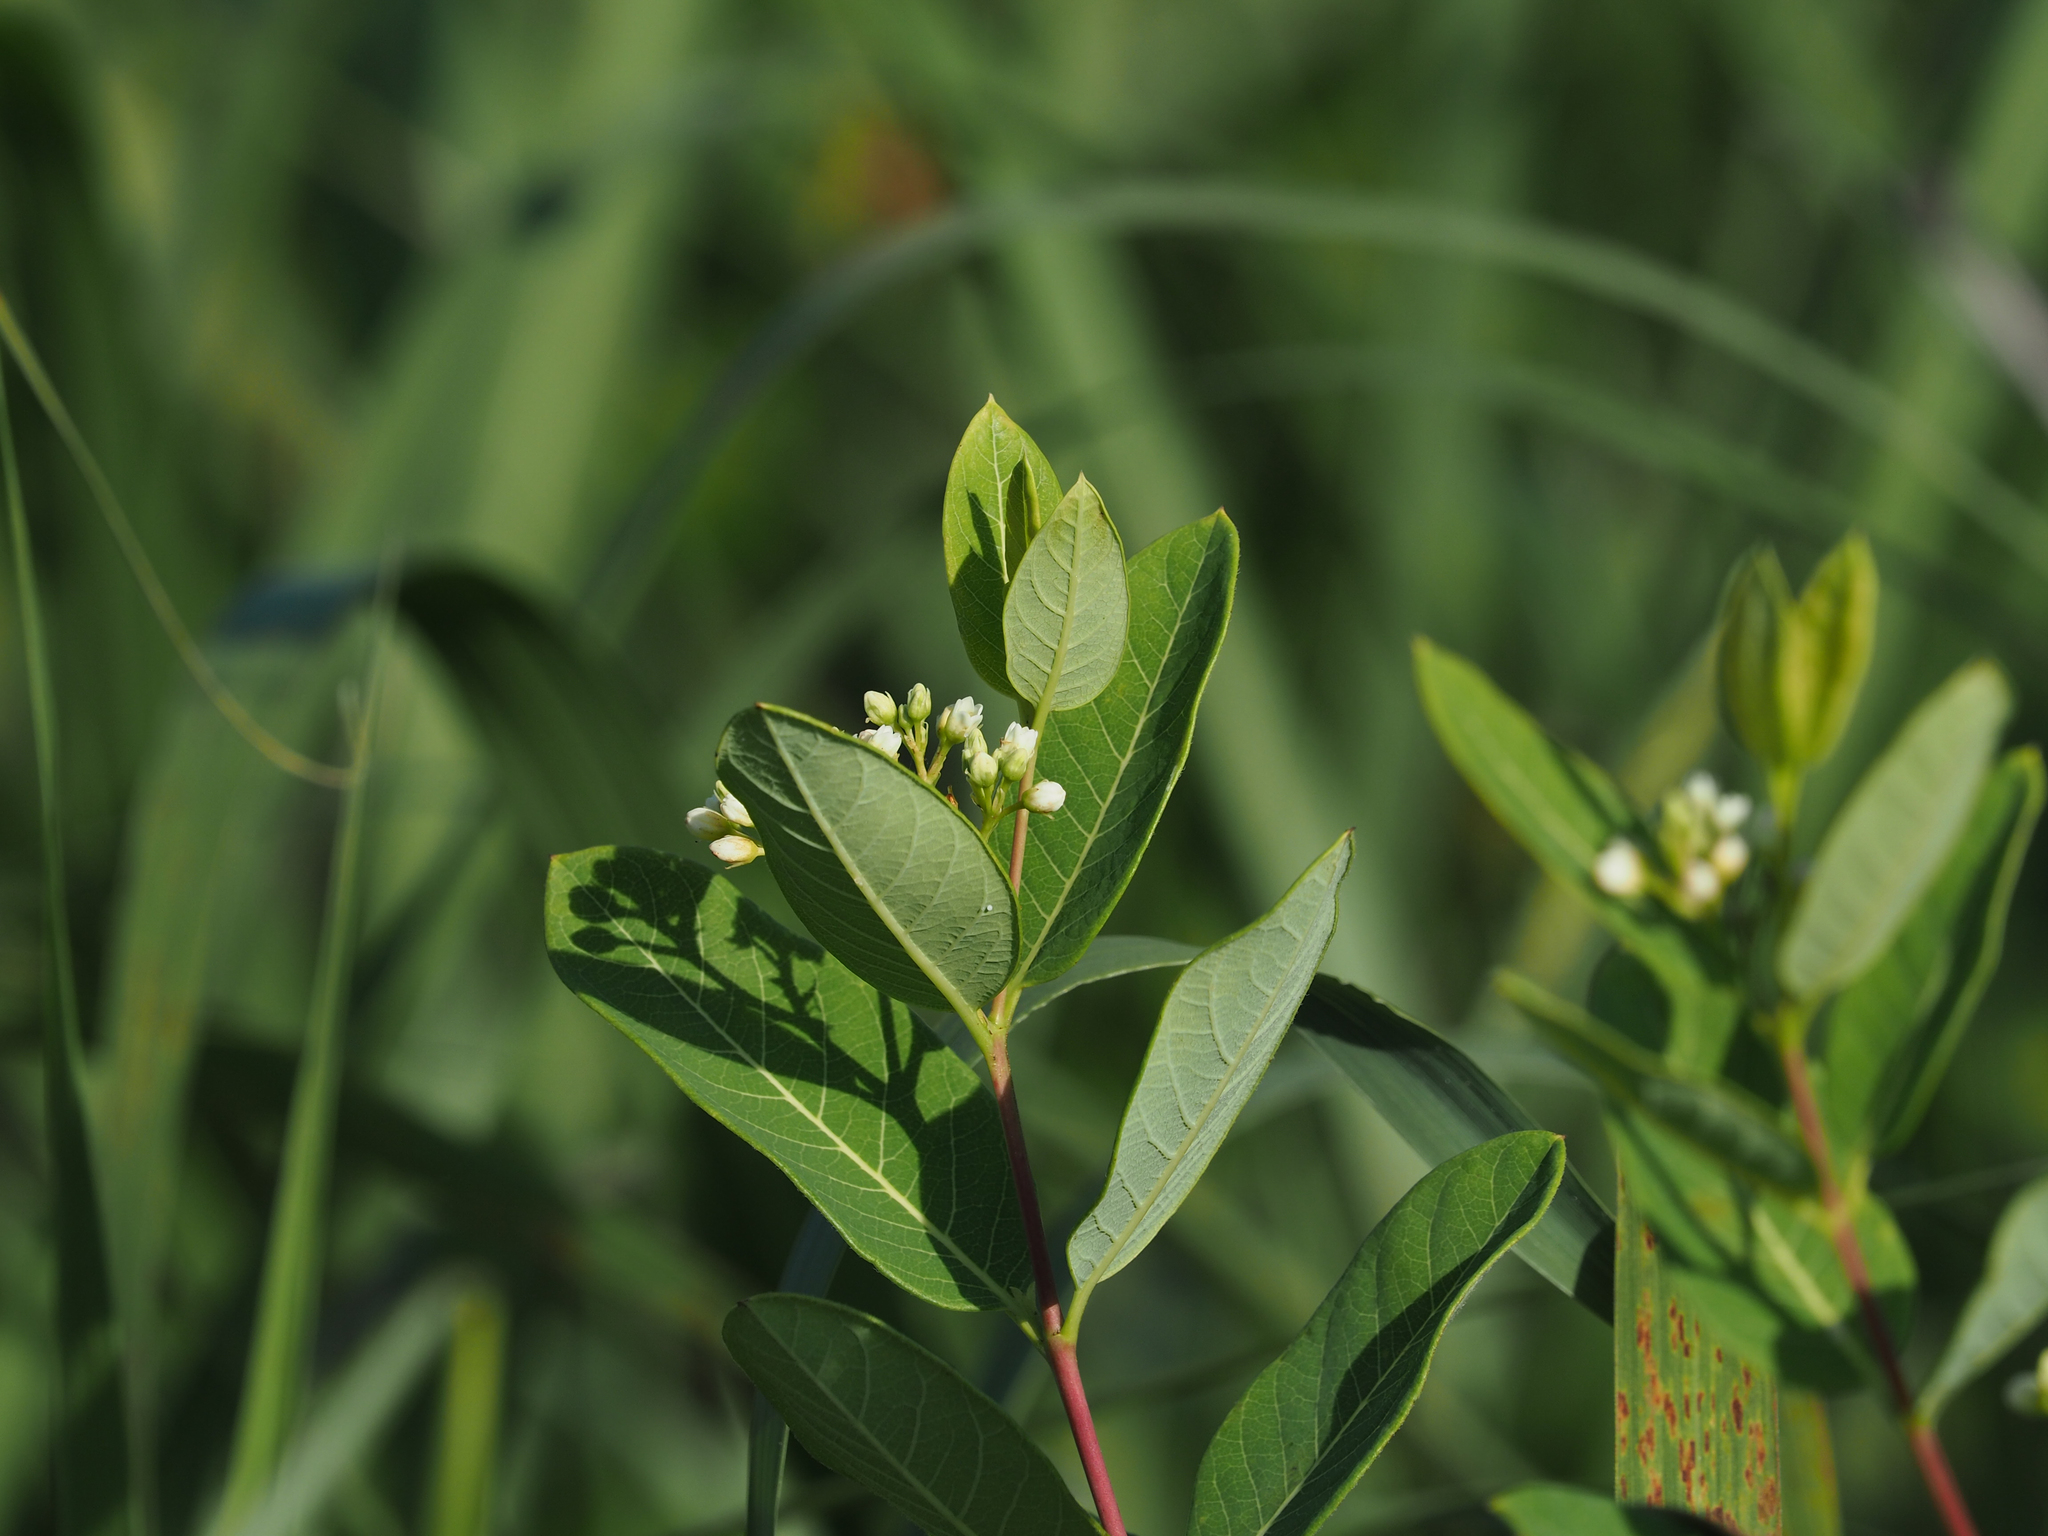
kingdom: Plantae
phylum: Tracheophyta
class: Magnoliopsida
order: Gentianales
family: Apocynaceae
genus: Apocynum
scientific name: Apocynum cannabinum
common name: Hemp dogbane
